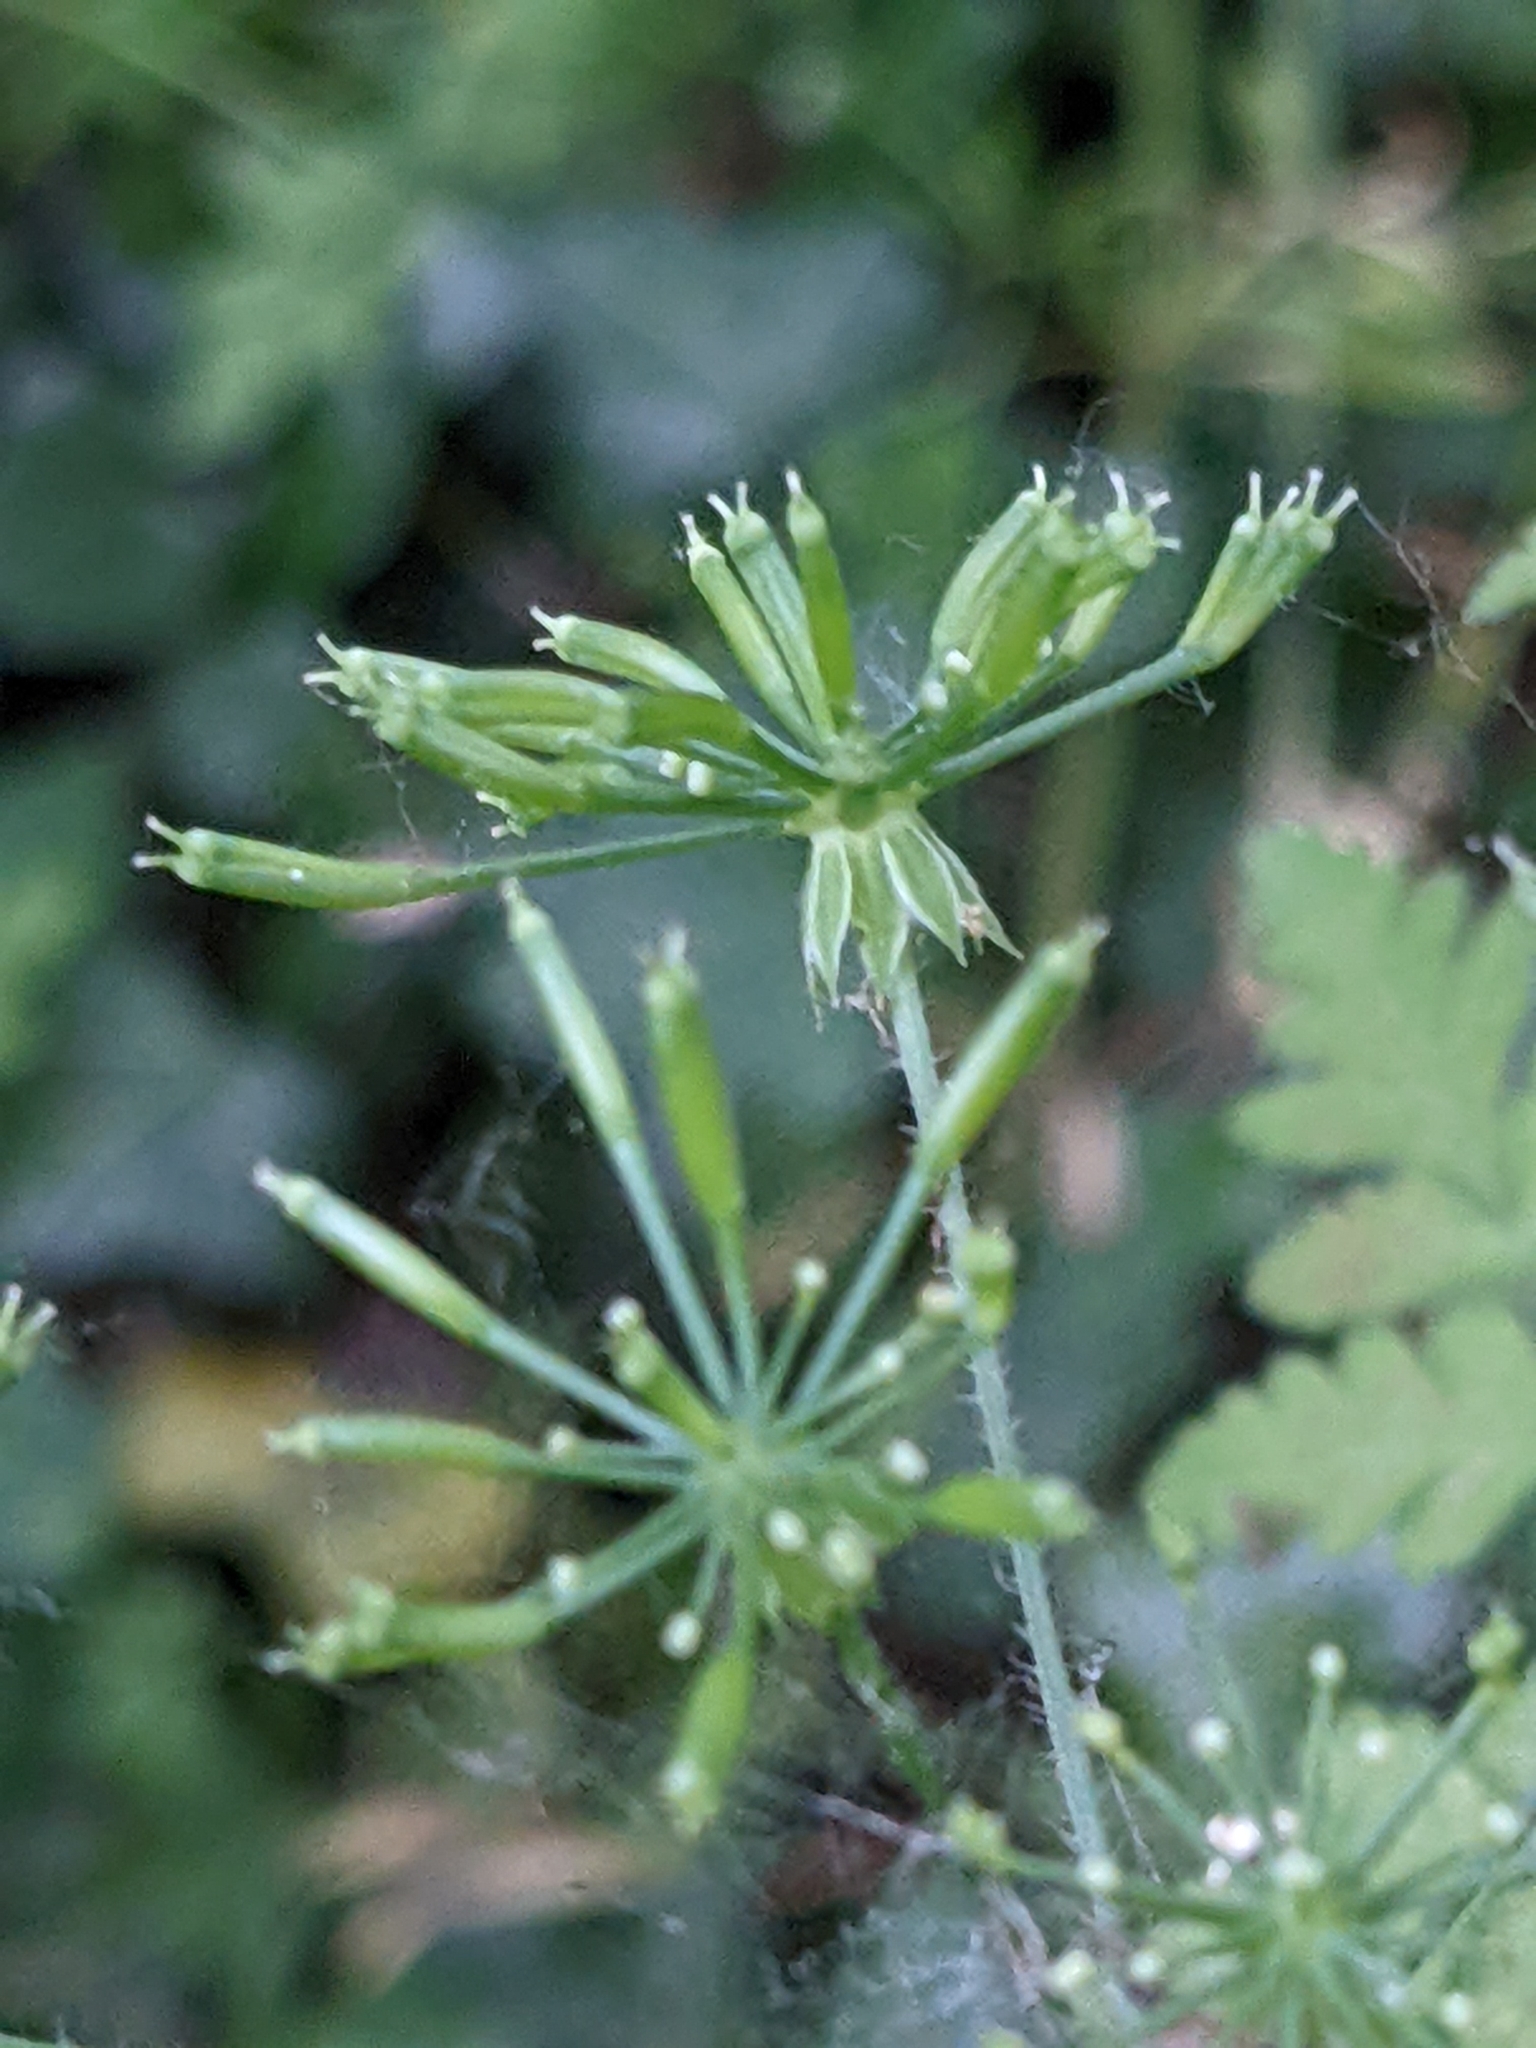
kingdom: Plantae
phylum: Tracheophyta
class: Magnoliopsida
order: Apiales
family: Apiaceae
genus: Chaerophyllum
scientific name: Chaerophyllum temulum
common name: Rough chervil
